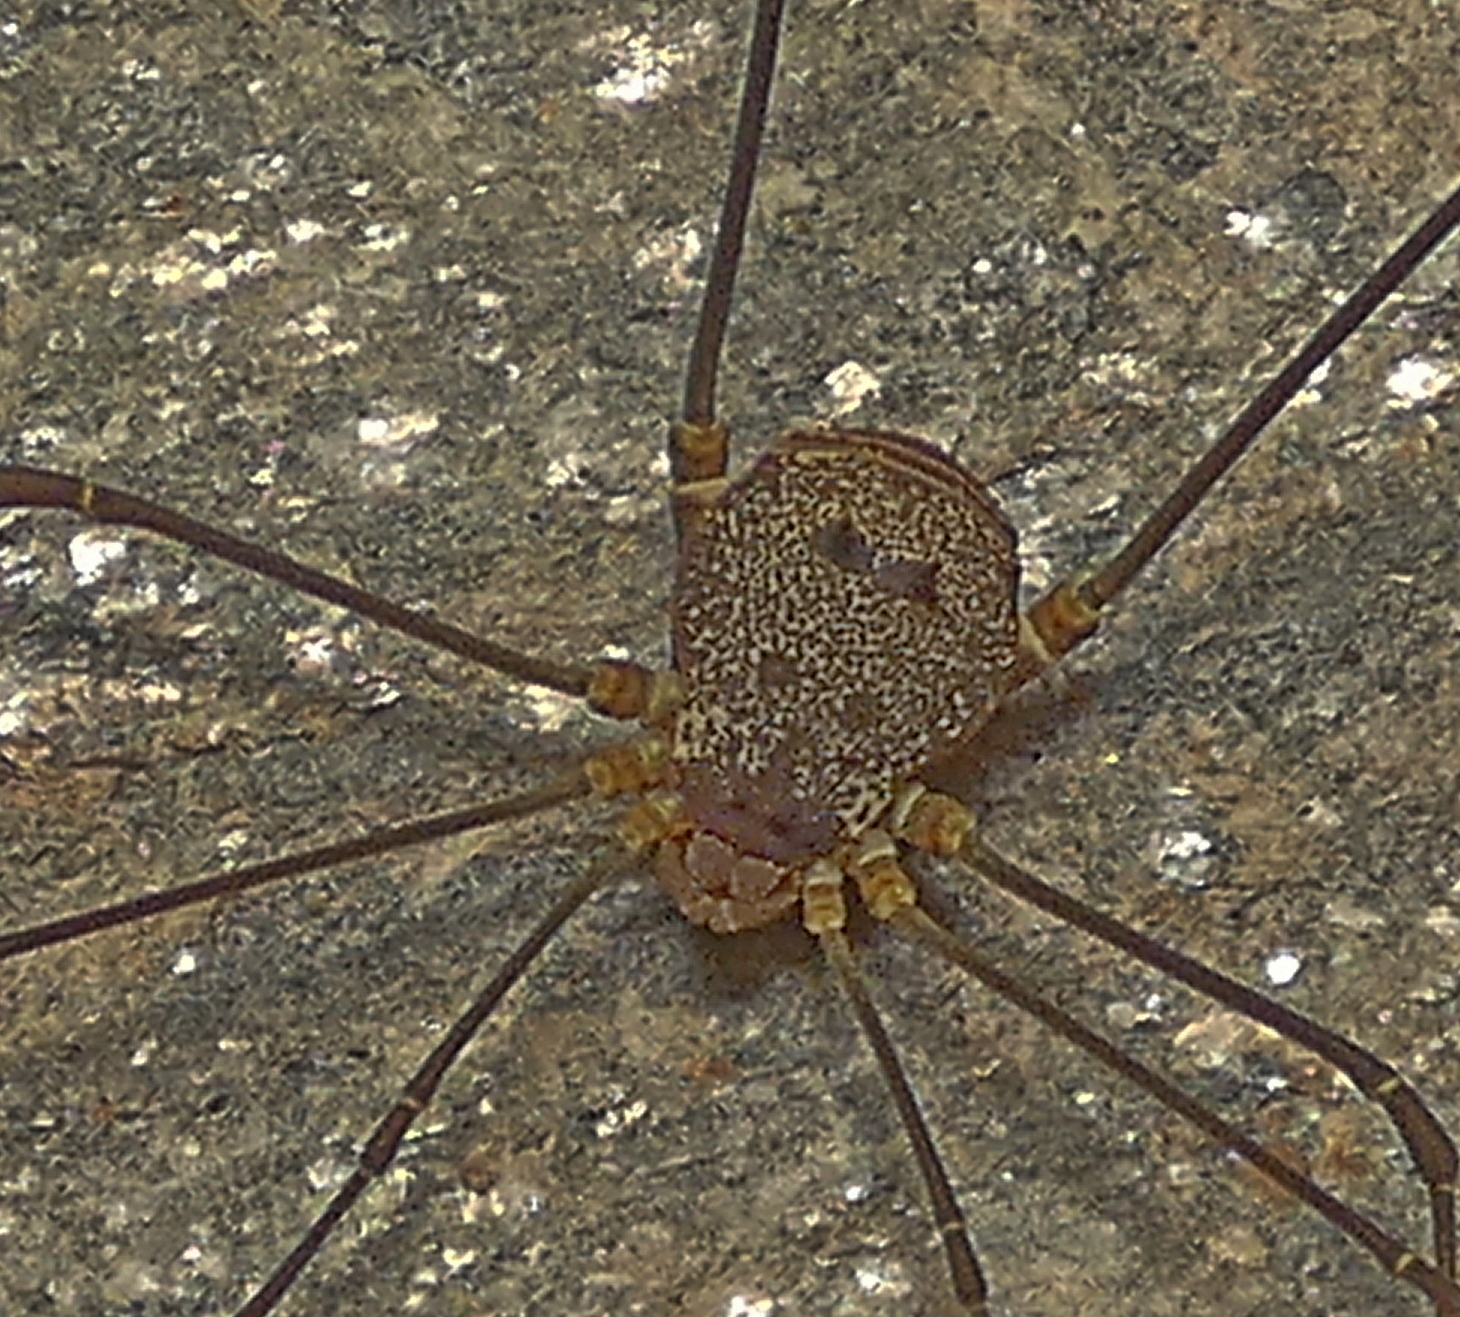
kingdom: Animalia
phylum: Arthropoda
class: Arachnida
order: Opiliones
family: Cosmetidae
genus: Gryne
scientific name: Gryne leprosa
